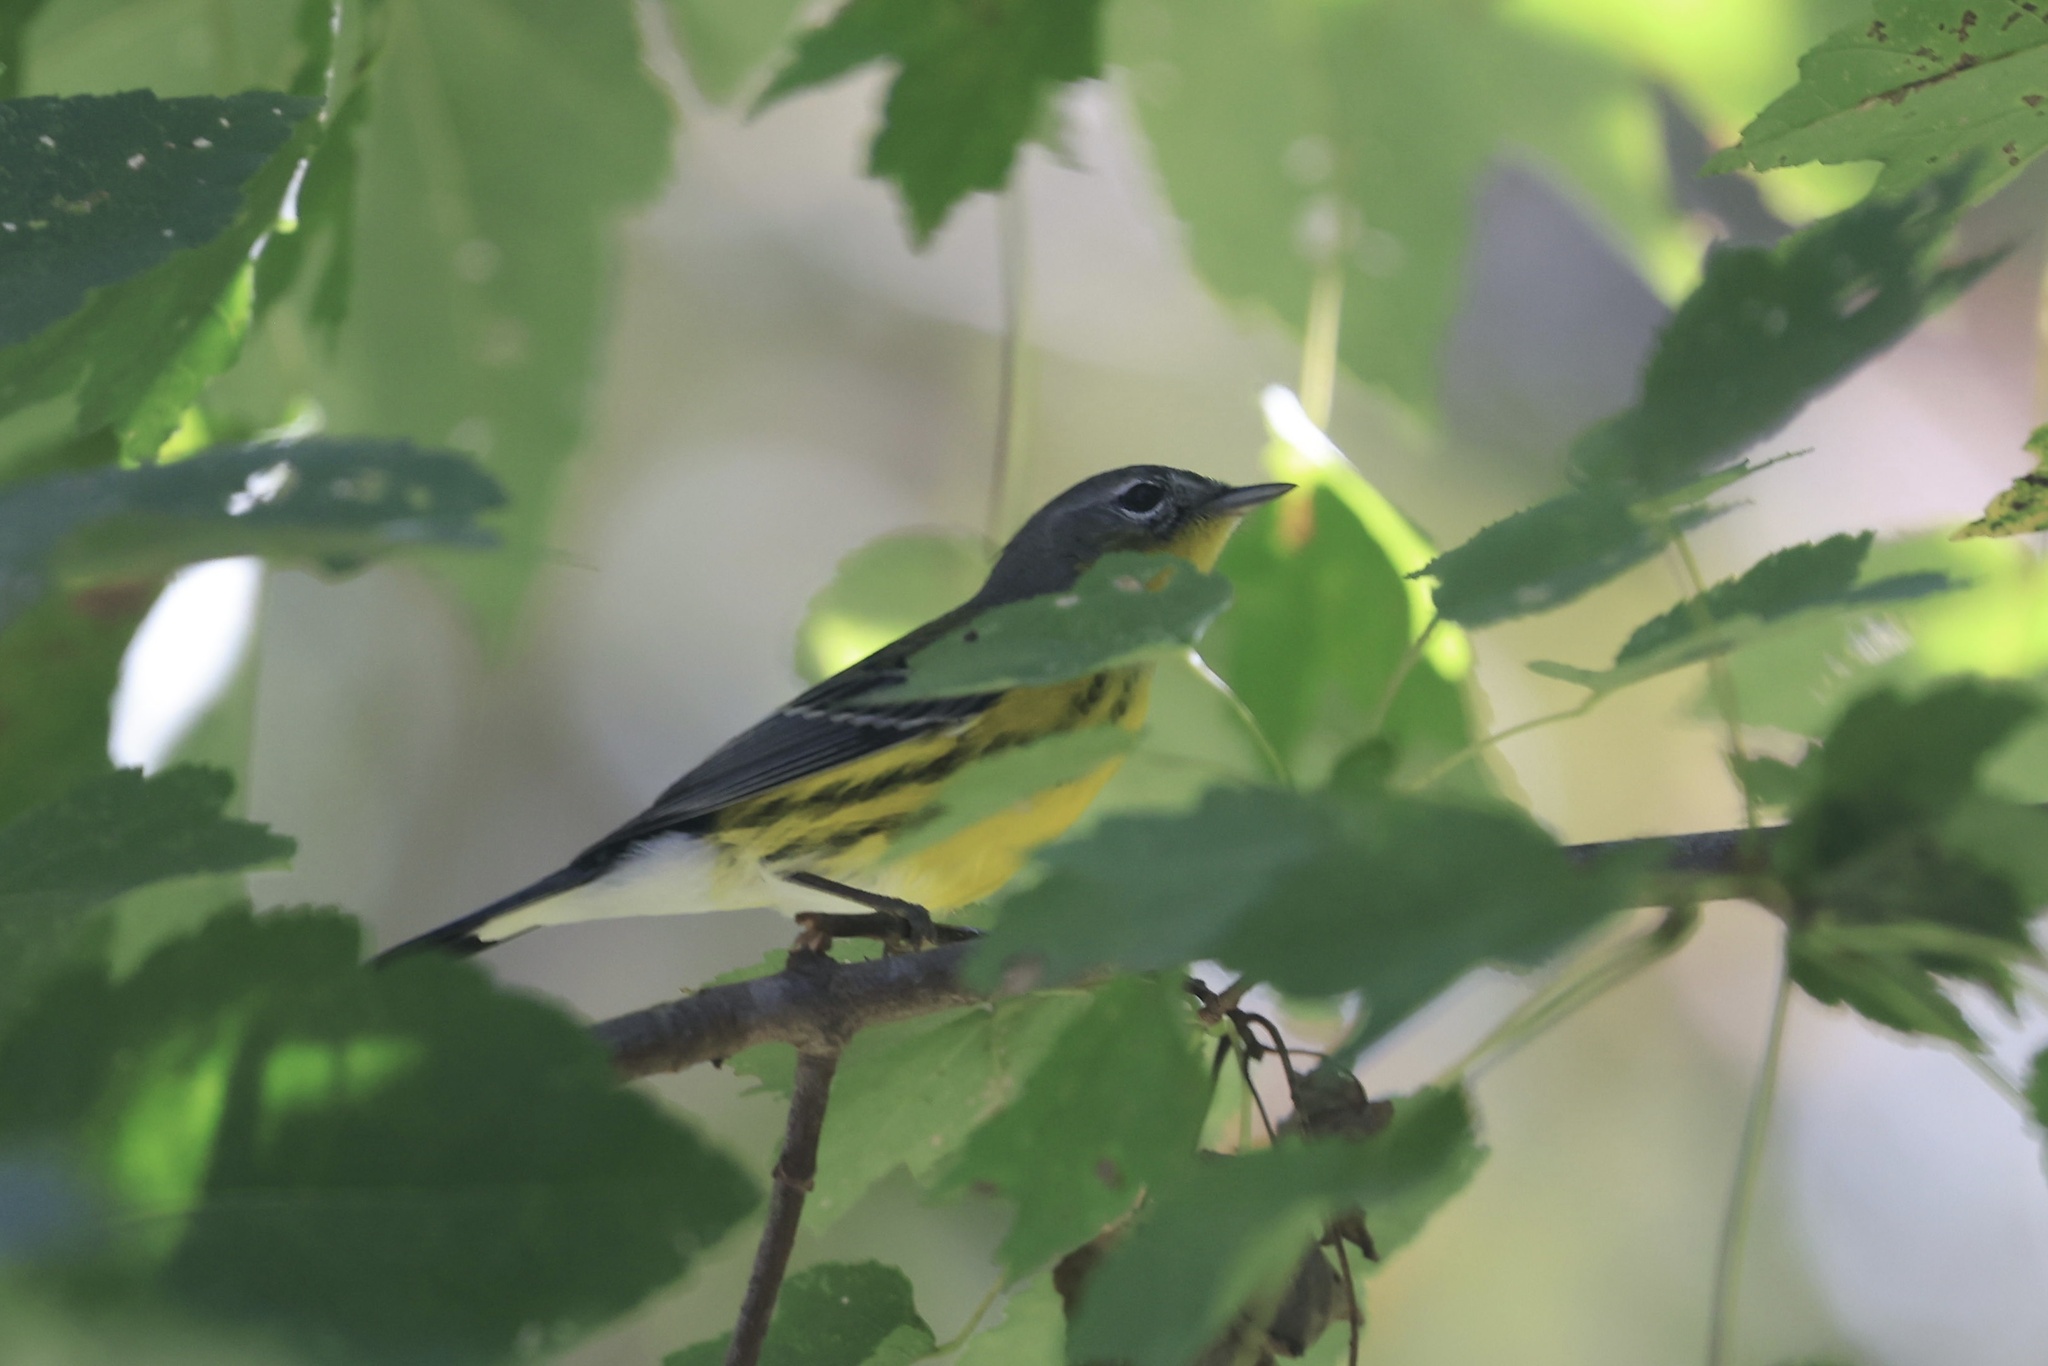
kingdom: Animalia
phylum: Chordata
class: Aves
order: Passeriformes
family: Parulidae
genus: Setophaga
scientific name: Setophaga magnolia
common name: Magnolia warbler
